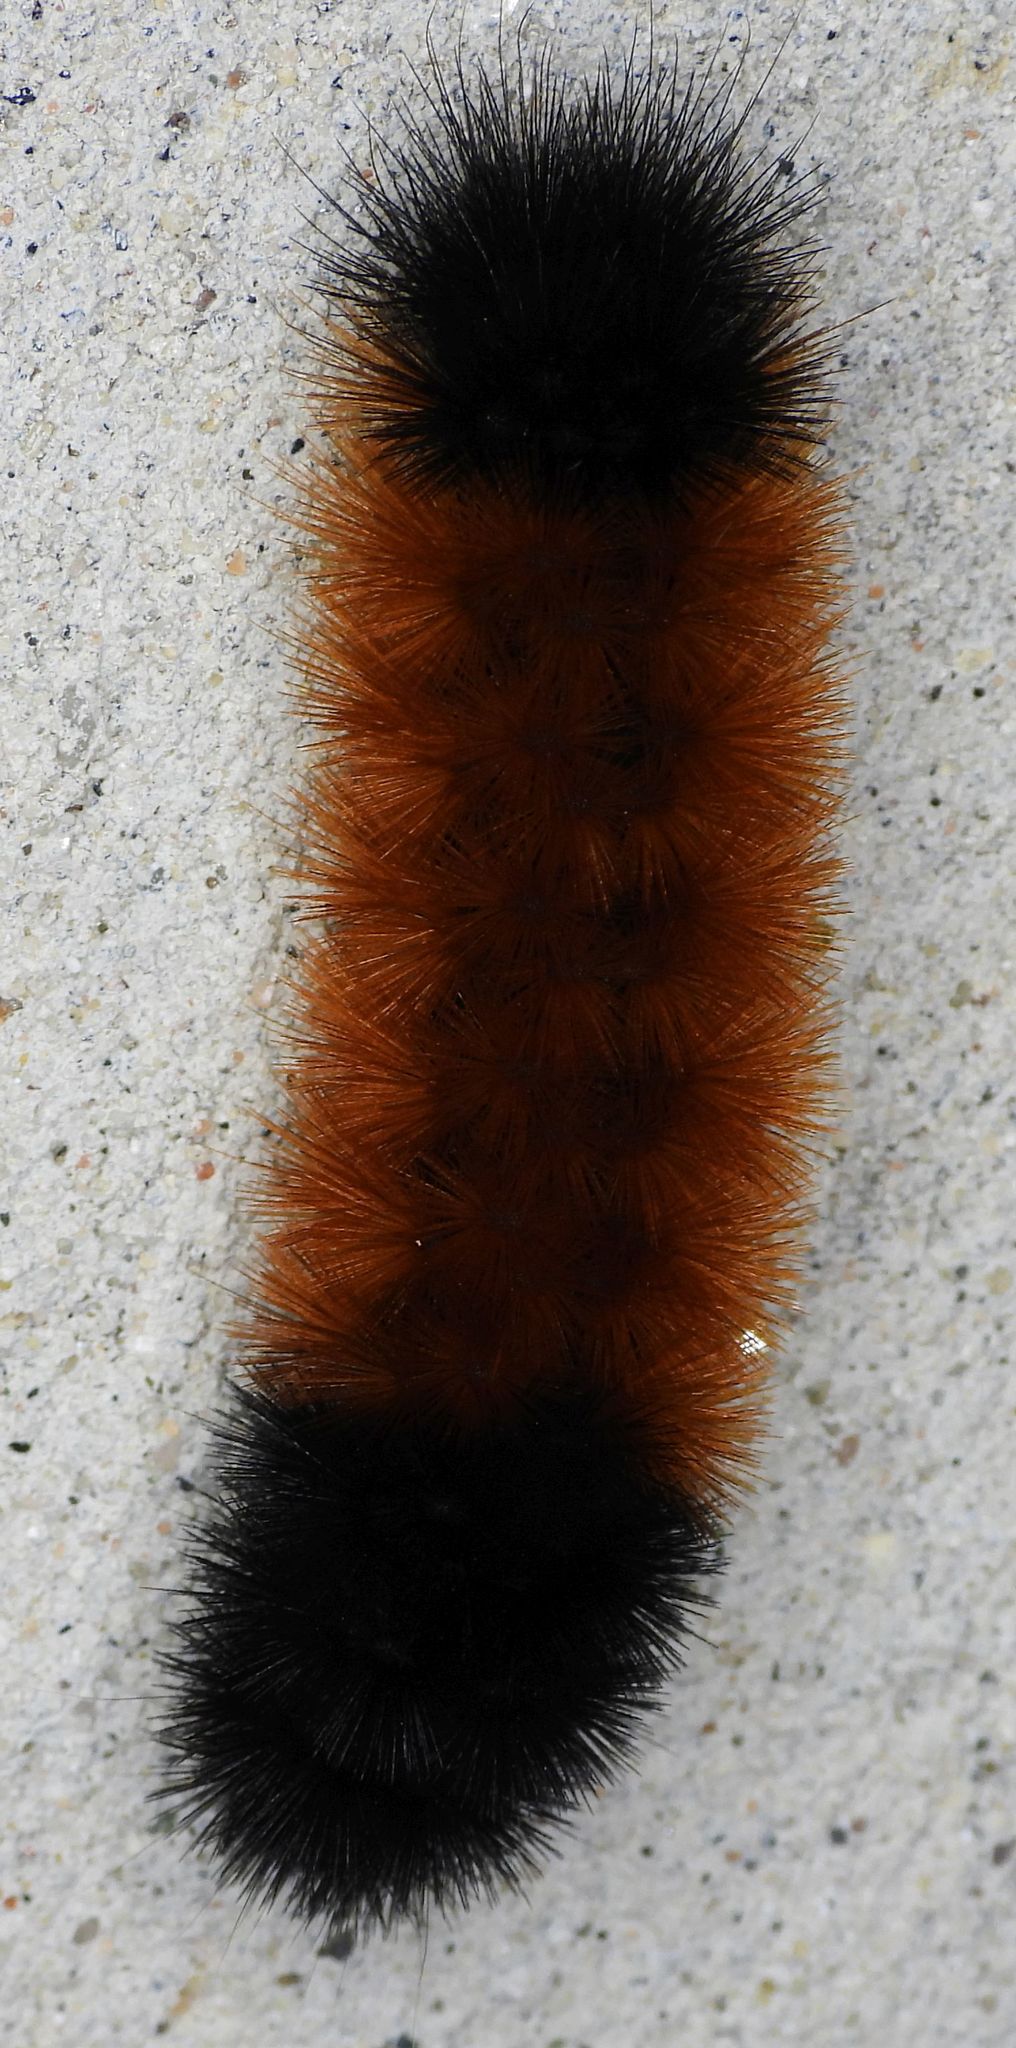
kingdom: Animalia
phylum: Arthropoda
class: Insecta
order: Lepidoptera
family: Erebidae
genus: Pyrrharctia
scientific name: Pyrrharctia isabella
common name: Isabella tiger moth
